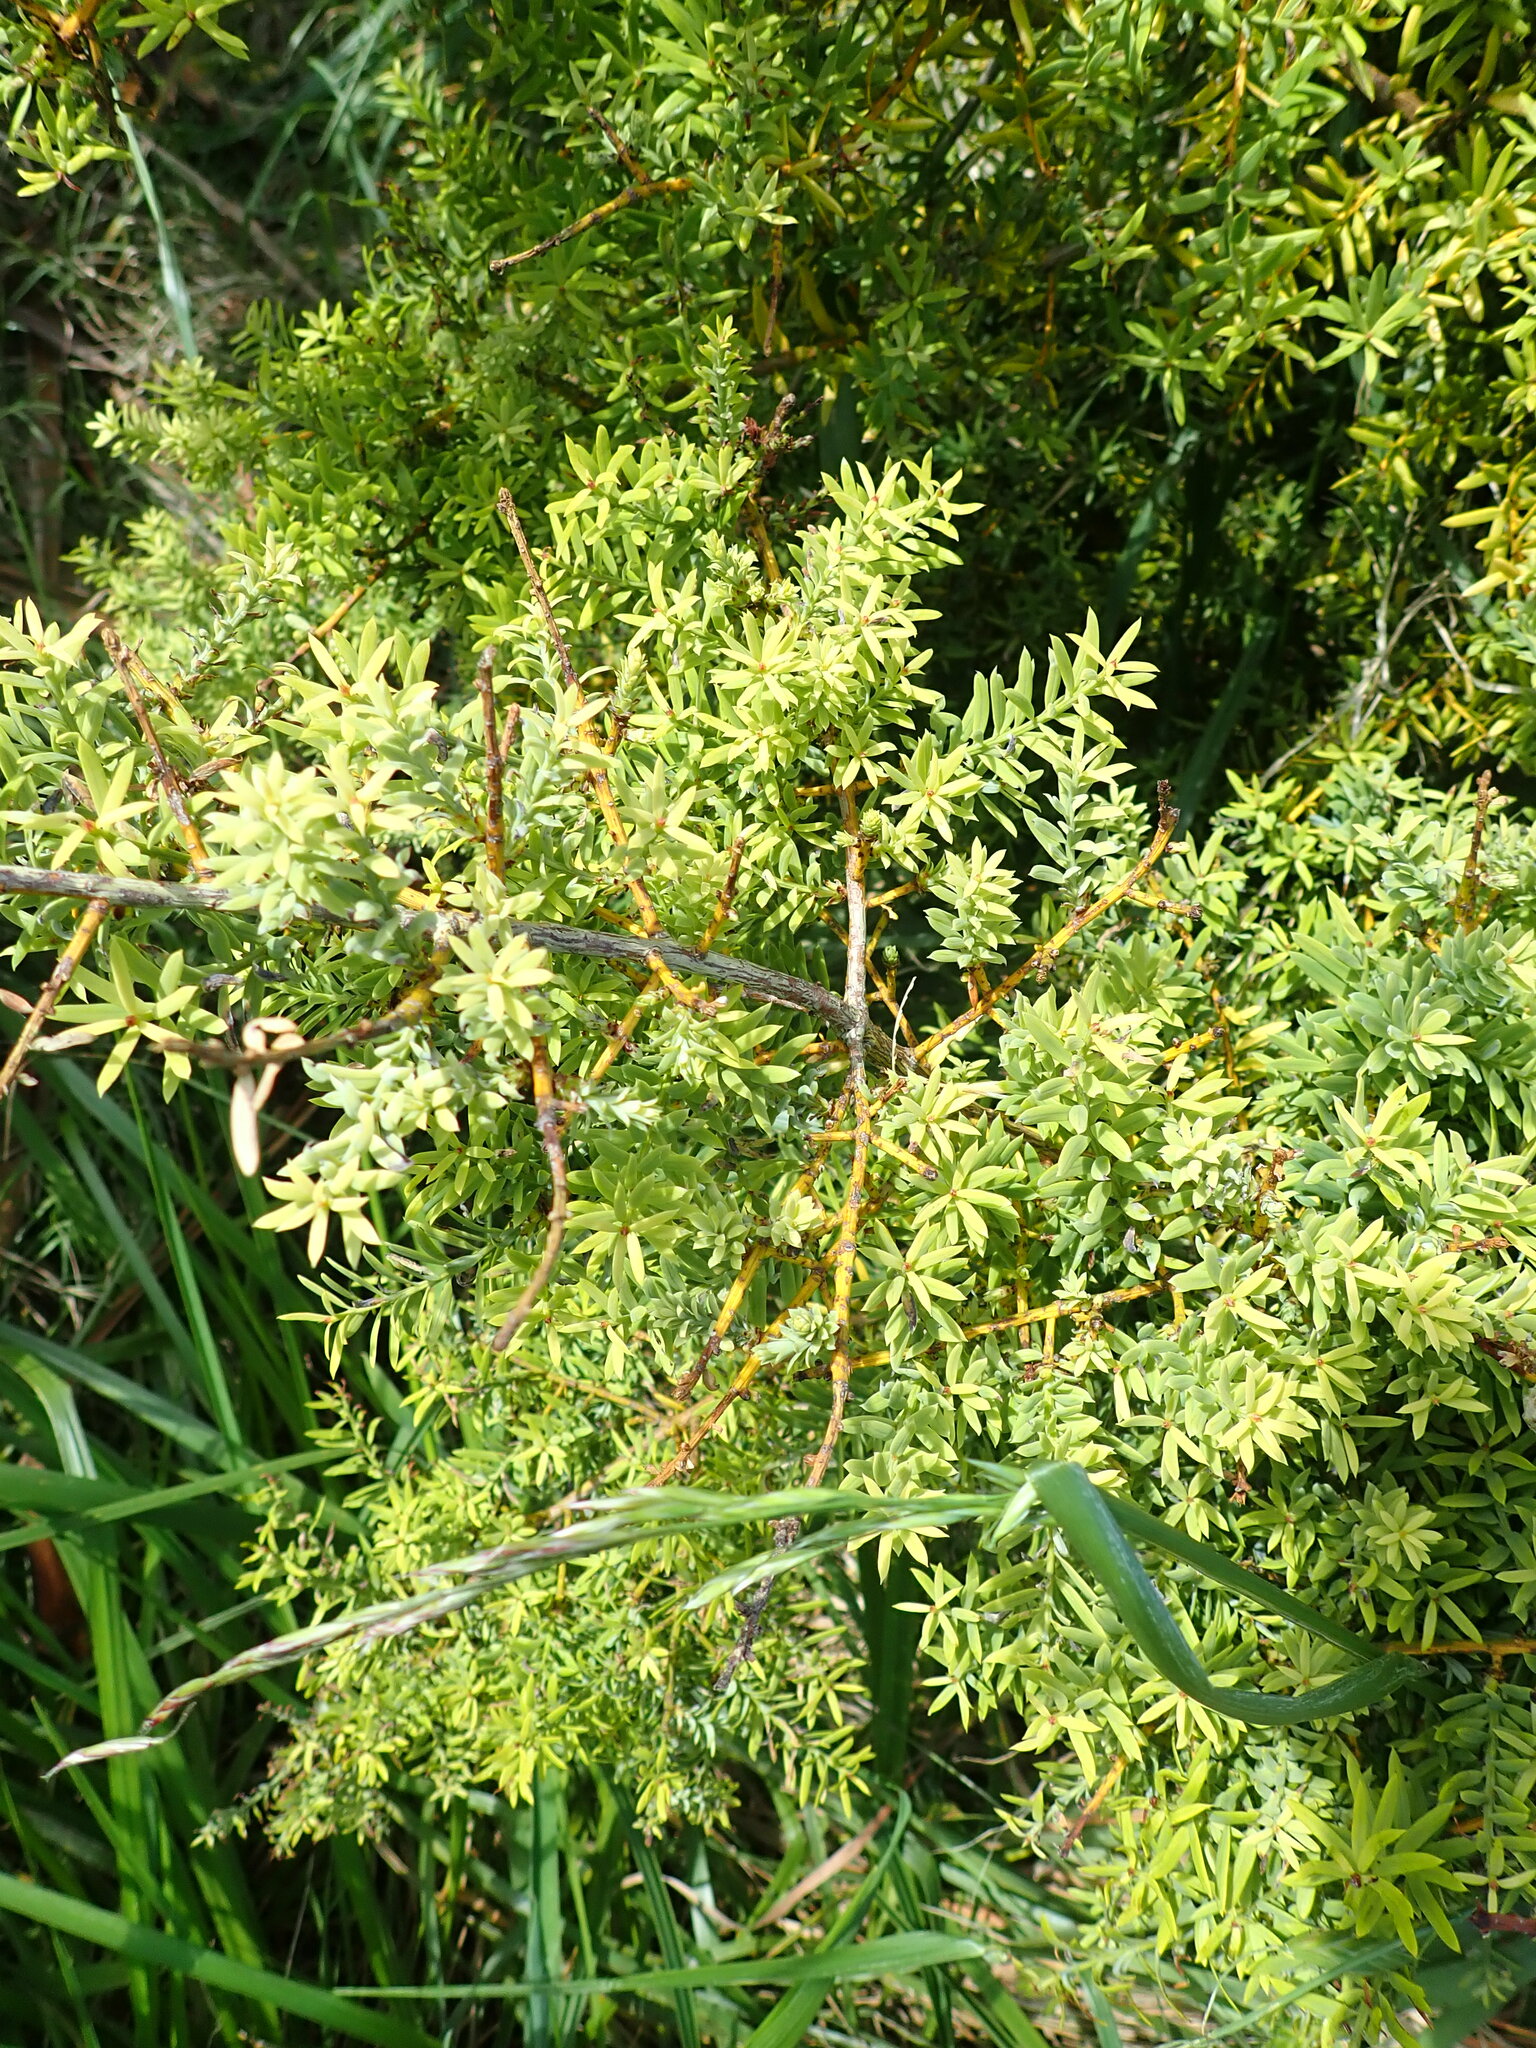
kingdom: Plantae
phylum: Tracheophyta
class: Pinopsida
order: Pinales
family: Podocarpaceae
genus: Podocarpus
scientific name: Podocarpus totara
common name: Totara
